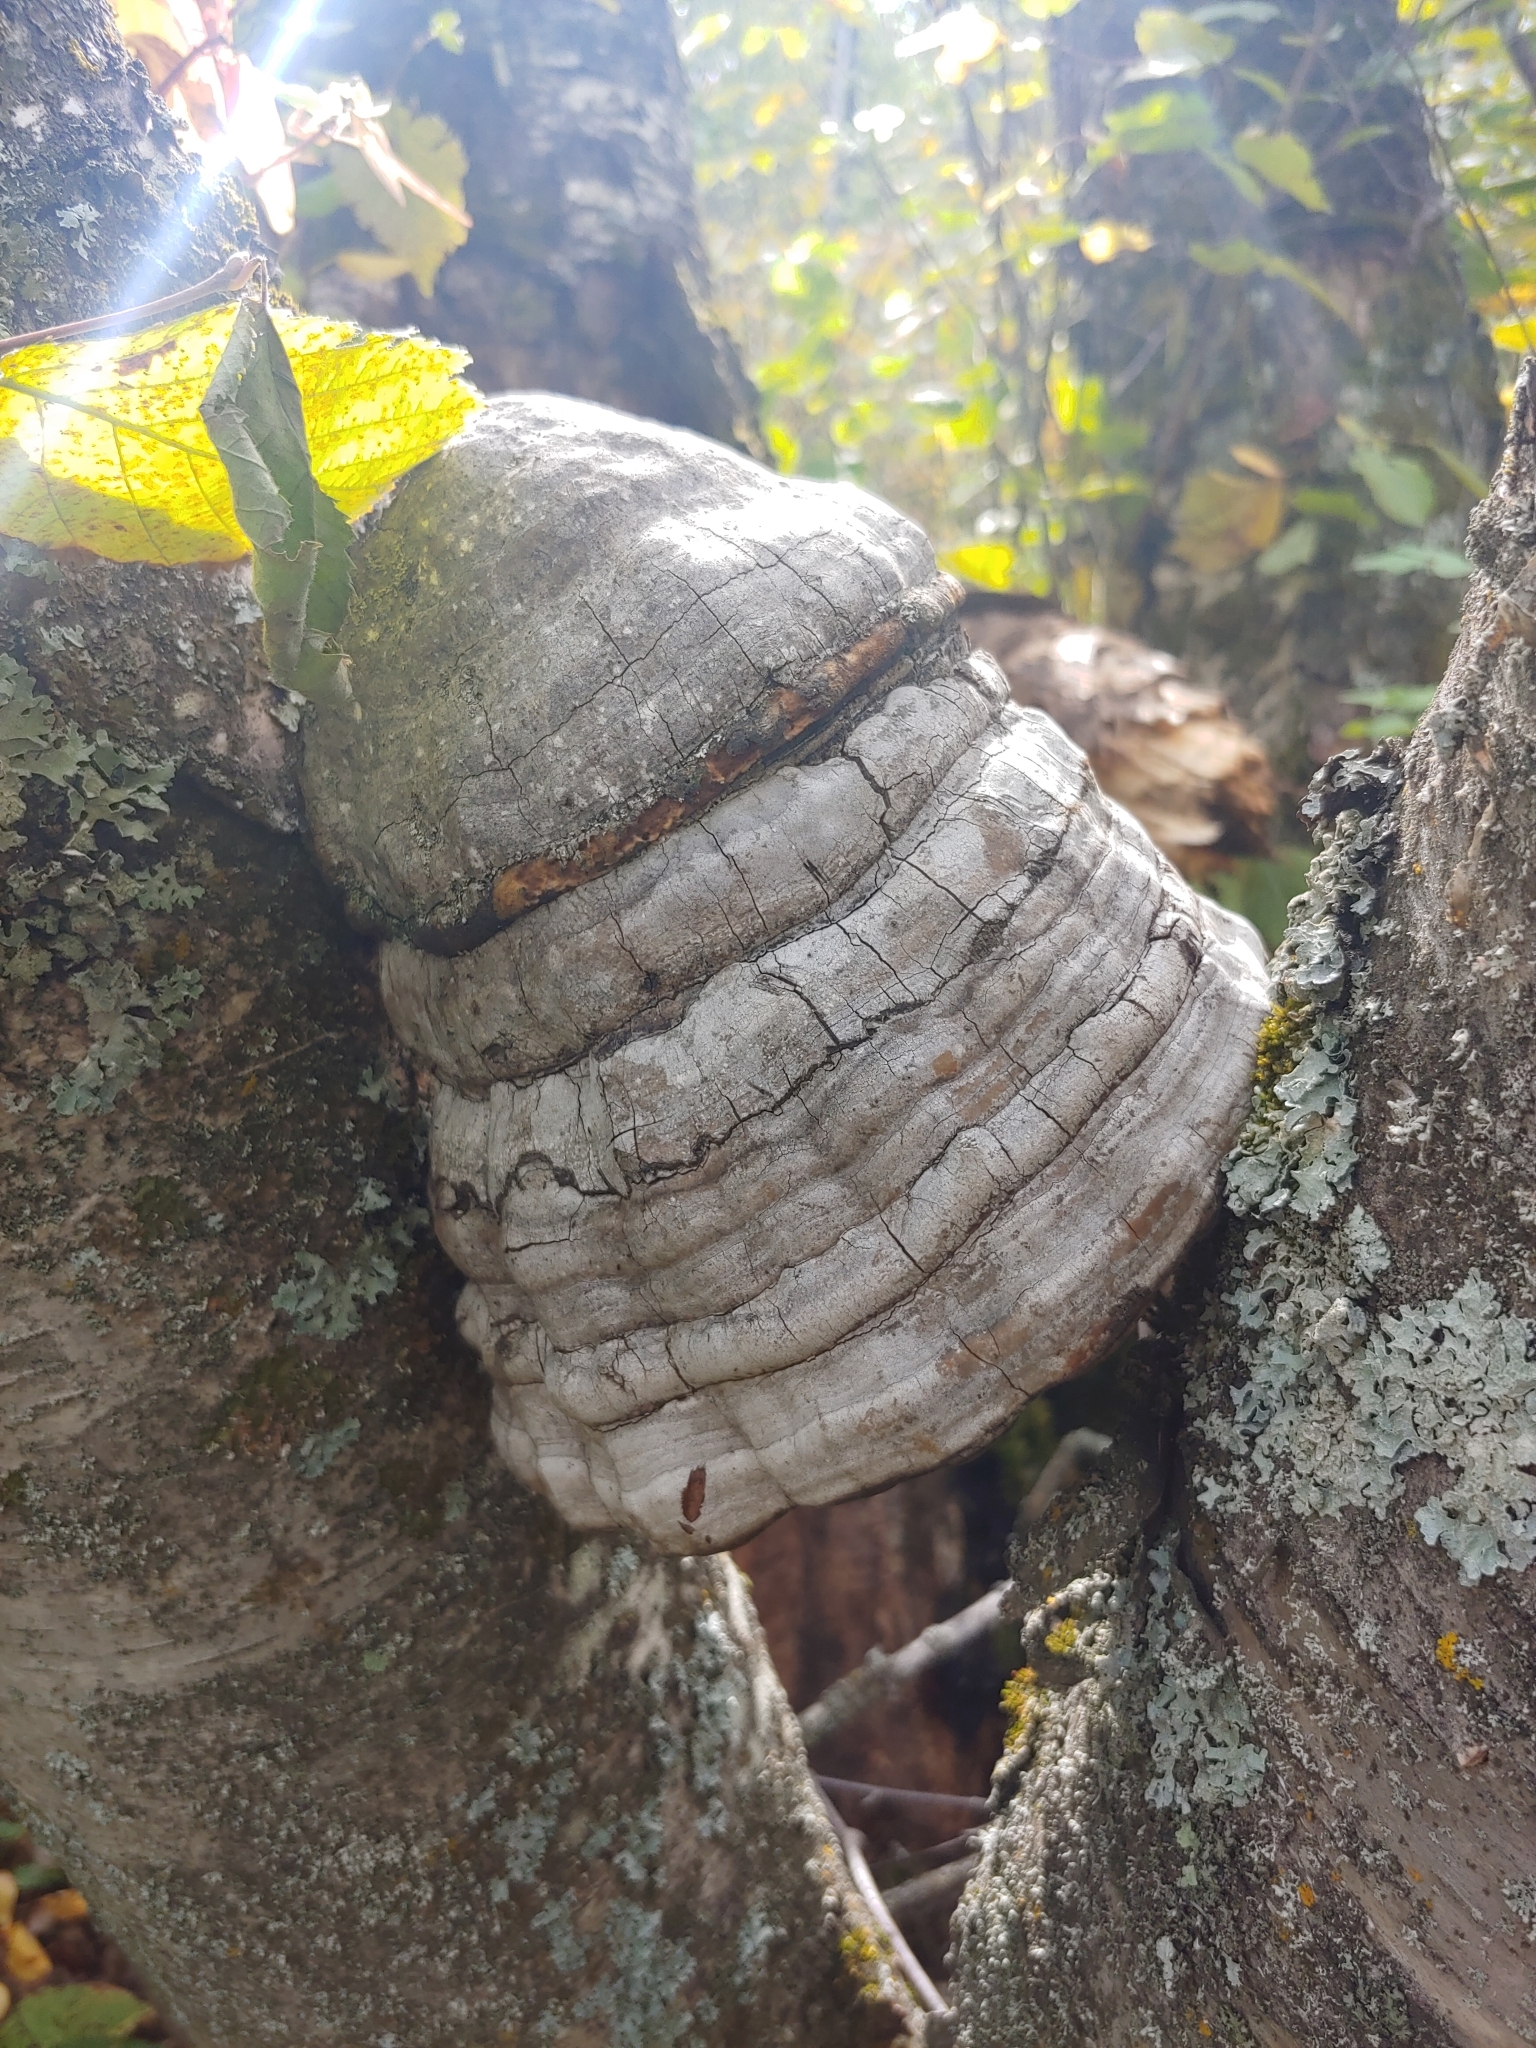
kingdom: Fungi
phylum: Basidiomycota
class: Agaricomycetes
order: Polyporales
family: Polyporaceae
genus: Fomes
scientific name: Fomes fomentarius
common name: Hoof fungus
